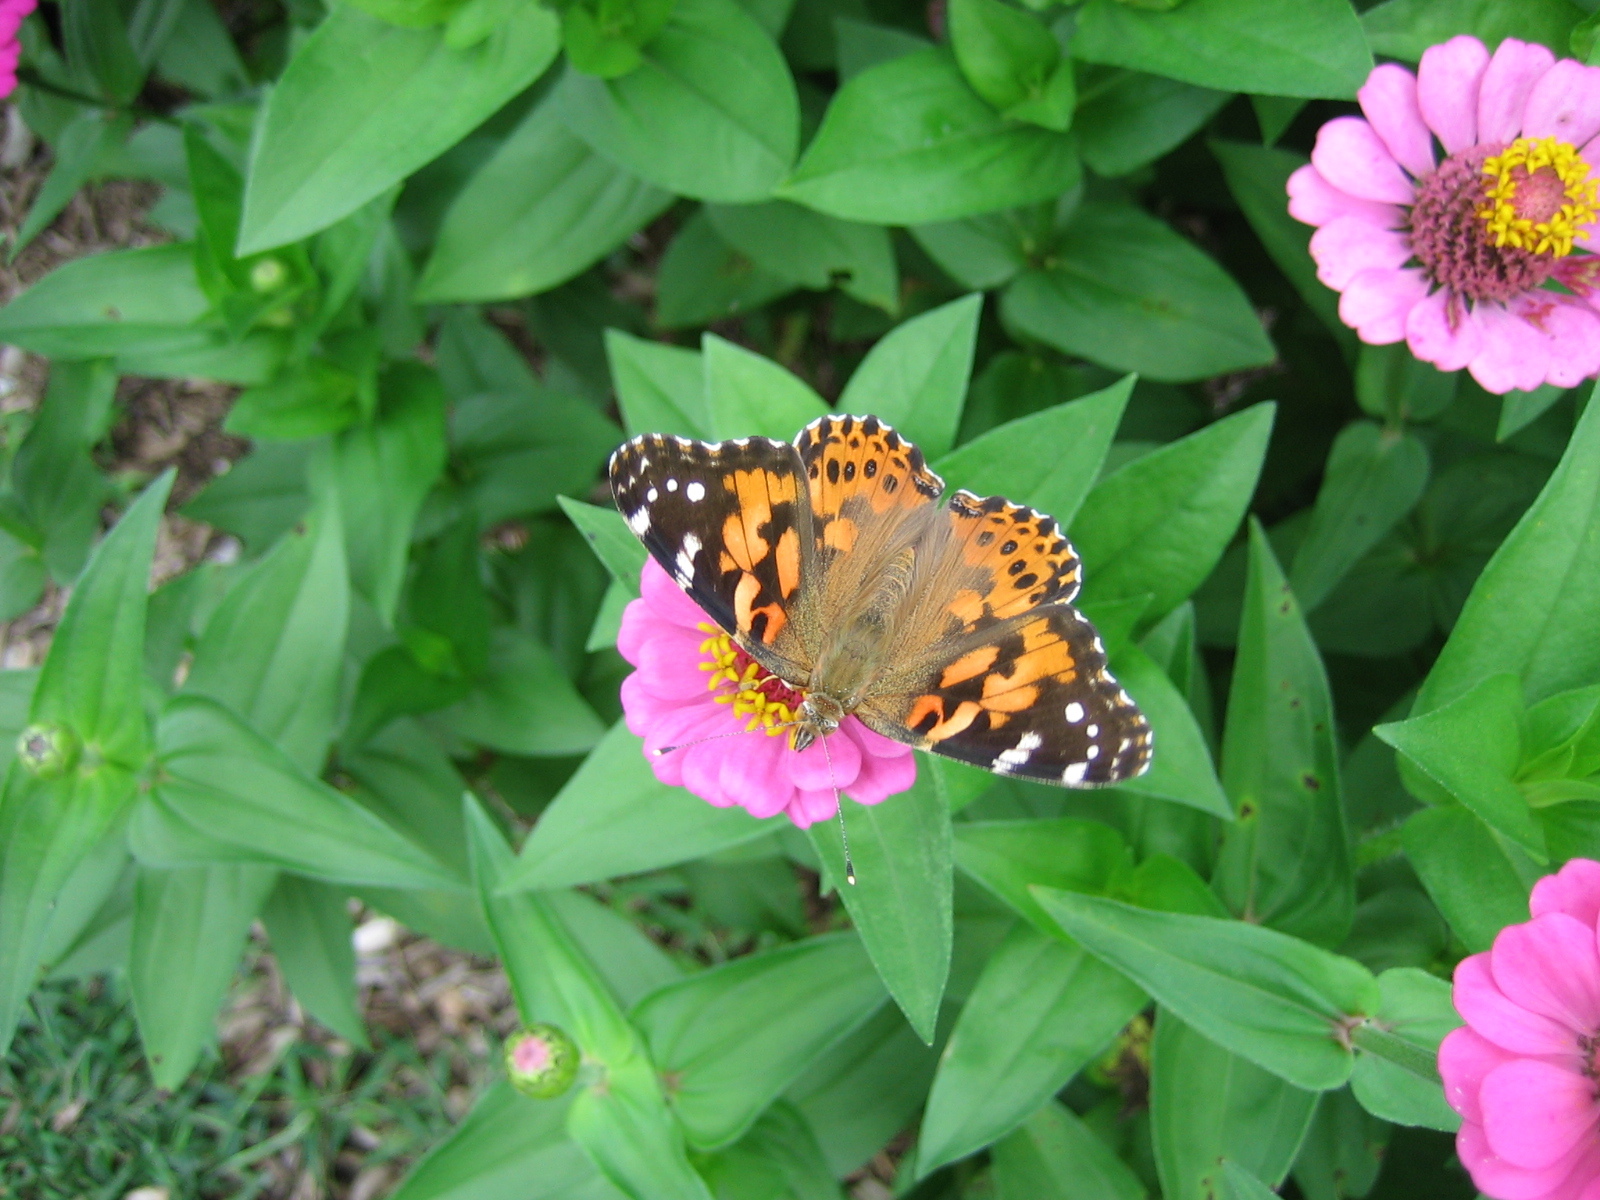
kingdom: Animalia
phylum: Arthropoda
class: Insecta
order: Lepidoptera
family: Nymphalidae
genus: Vanessa
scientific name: Vanessa cardui
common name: Painted lady
